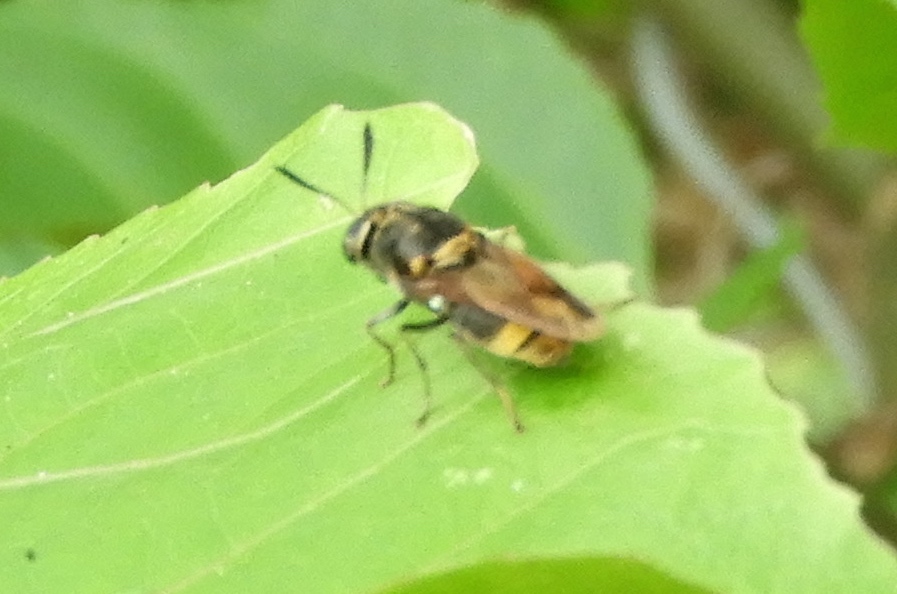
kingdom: Animalia
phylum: Arthropoda
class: Insecta
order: Diptera
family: Stratiomyidae
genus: Hoplitimyia
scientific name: Hoplitimyia mutabilis
